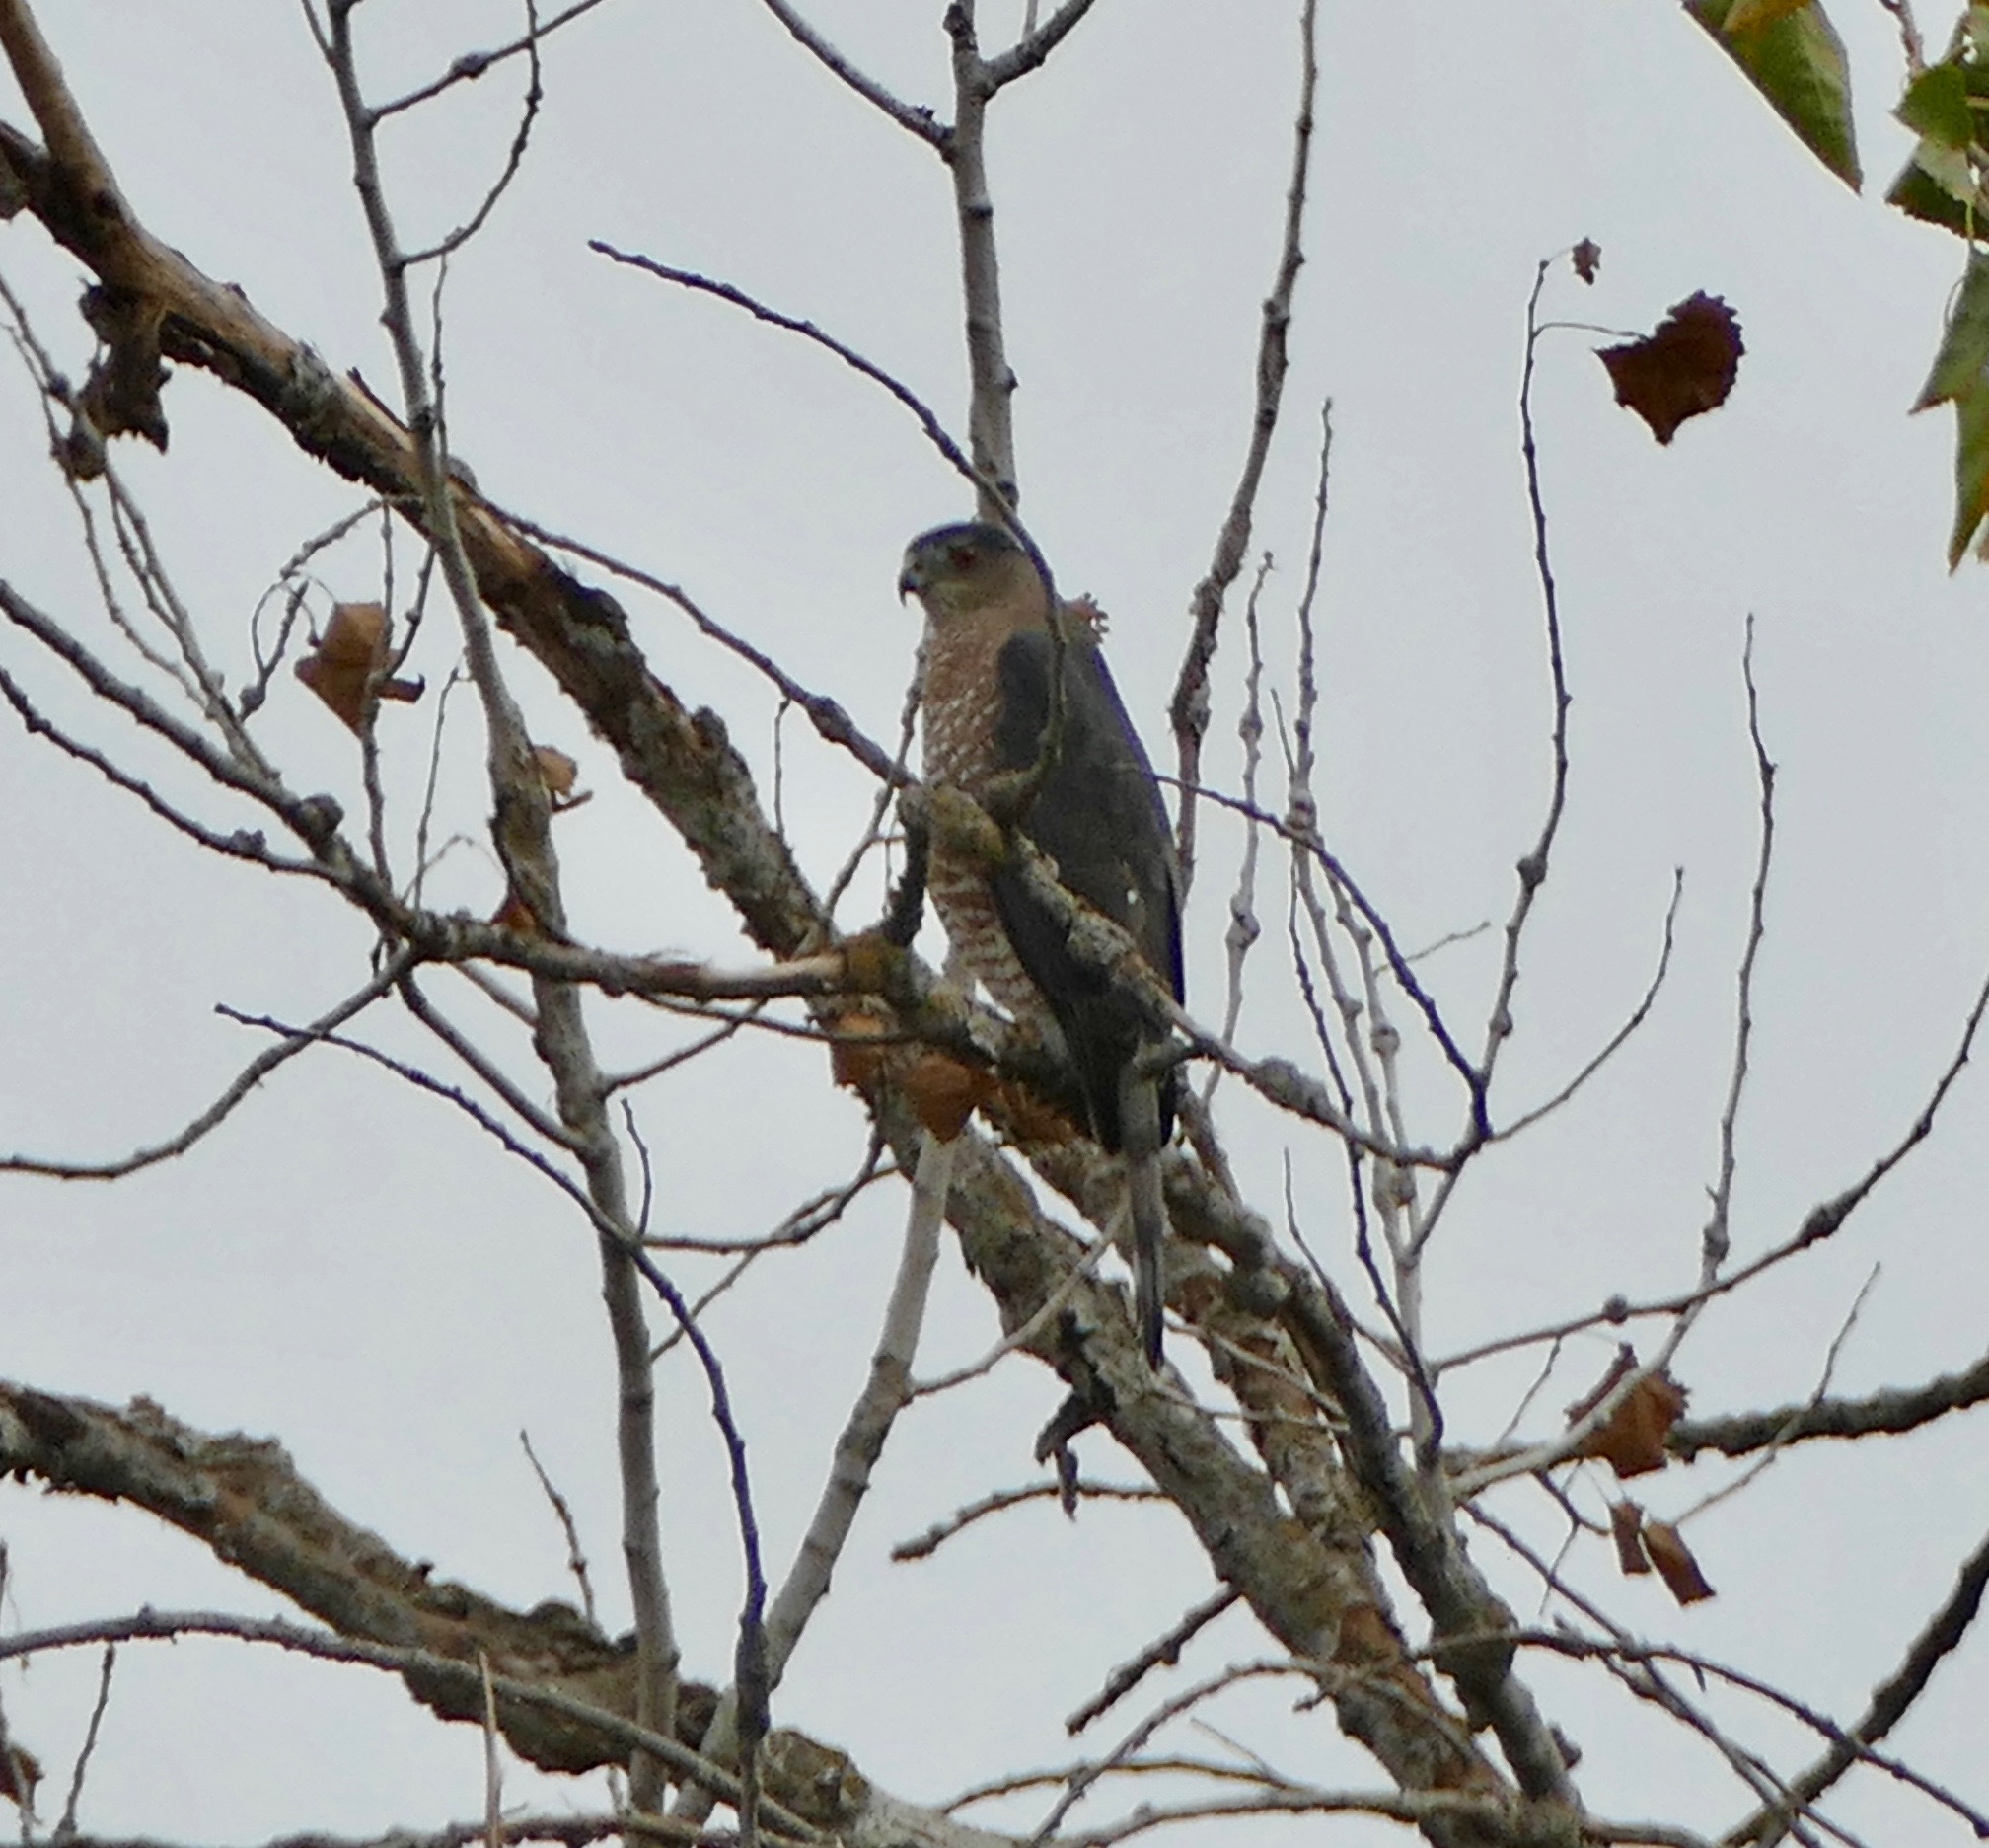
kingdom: Animalia
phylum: Chordata
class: Aves
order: Accipitriformes
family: Accipitridae
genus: Accipiter
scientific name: Accipiter cooperii
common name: Cooper's hawk
